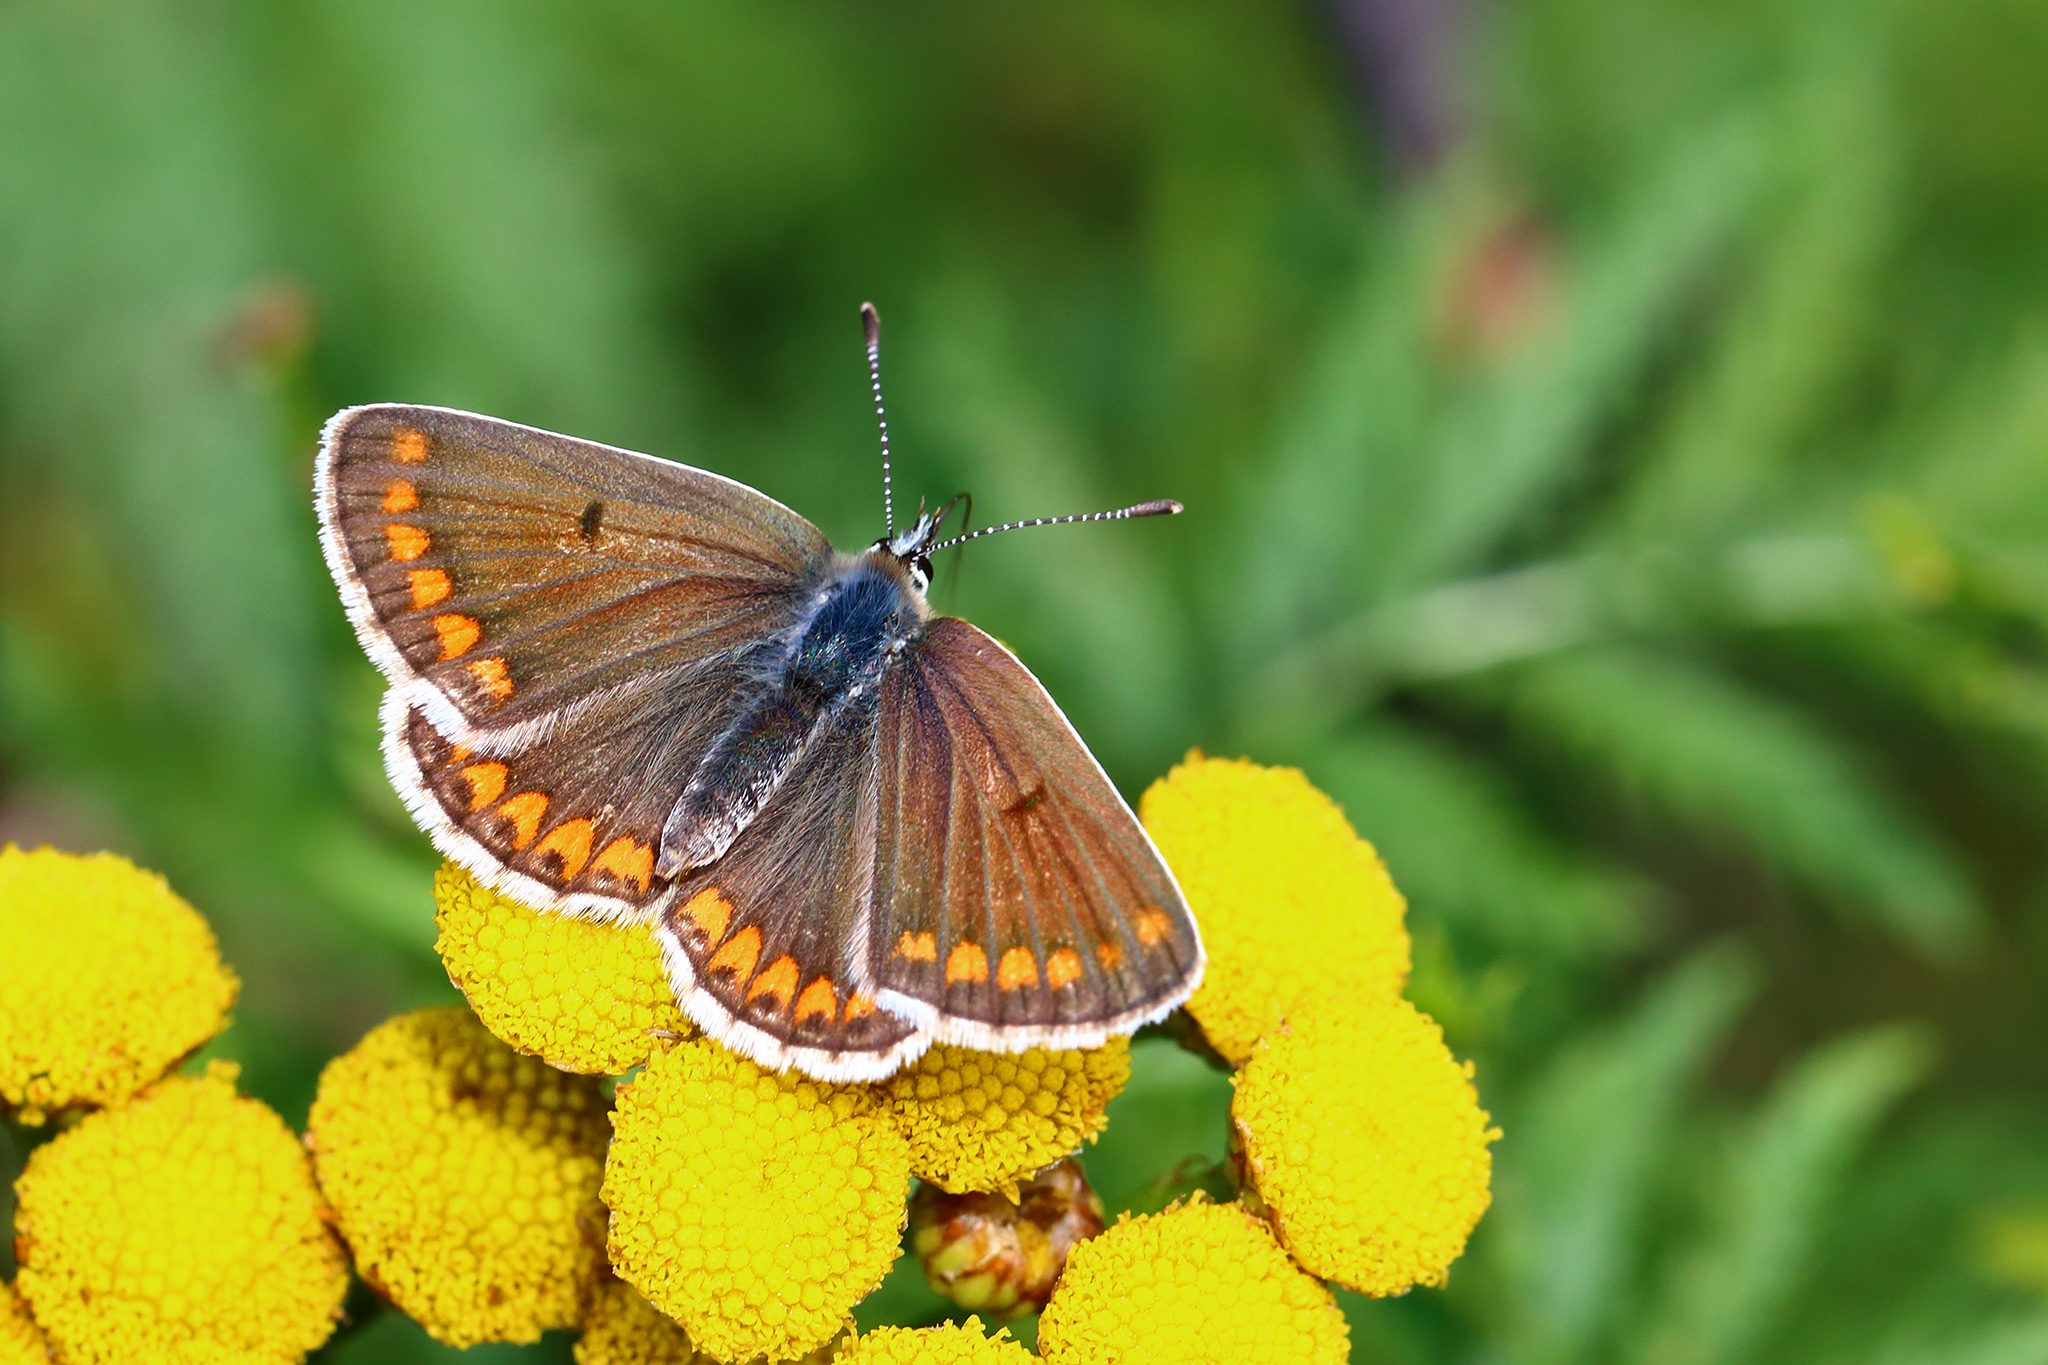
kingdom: Animalia
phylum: Arthropoda
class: Insecta
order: Lepidoptera
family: Lycaenidae
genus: Aricia
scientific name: Aricia agestis
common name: Brown argus
